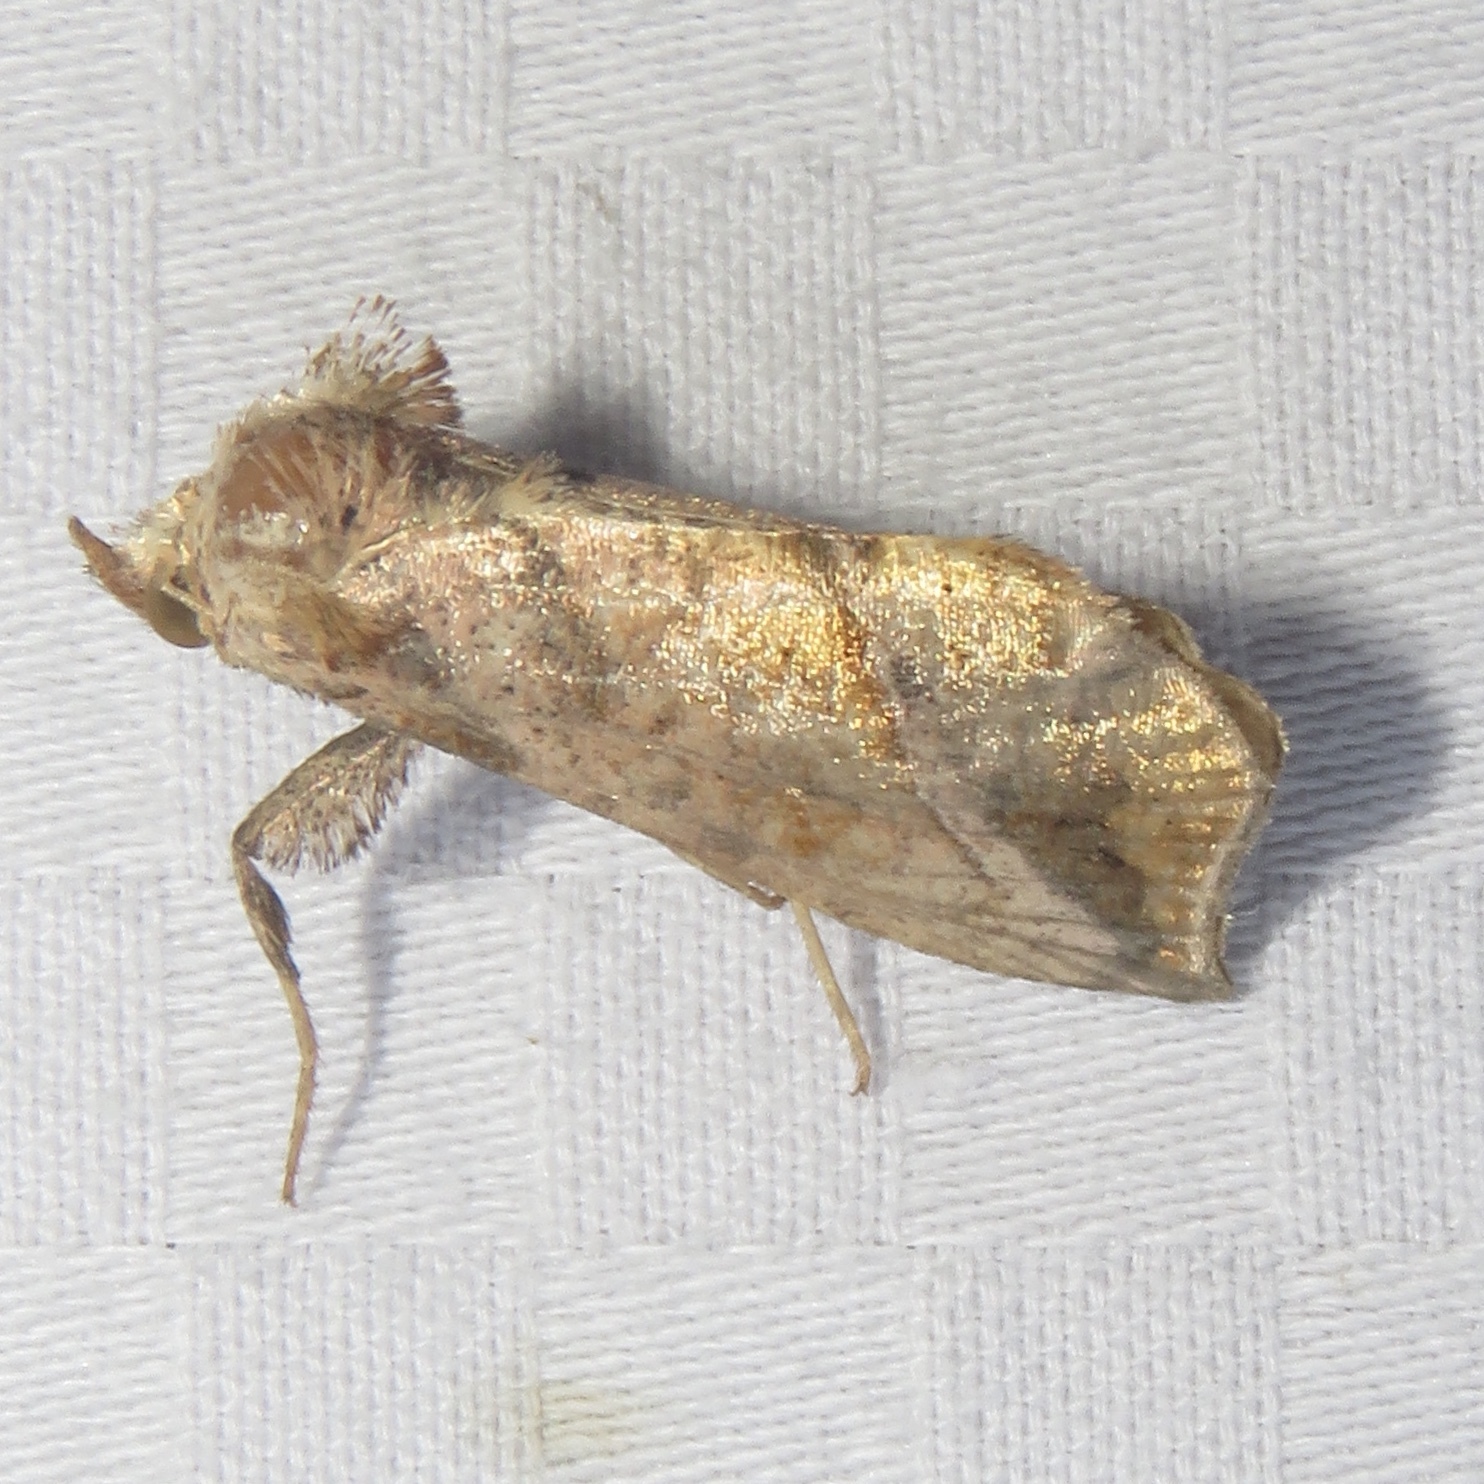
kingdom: Animalia
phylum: Arthropoda
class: Insecta
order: Lepidoptera
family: Noctuidae
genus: Pseudeva
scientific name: Pseudeva purpurigera
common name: Straight-lined looper moth
